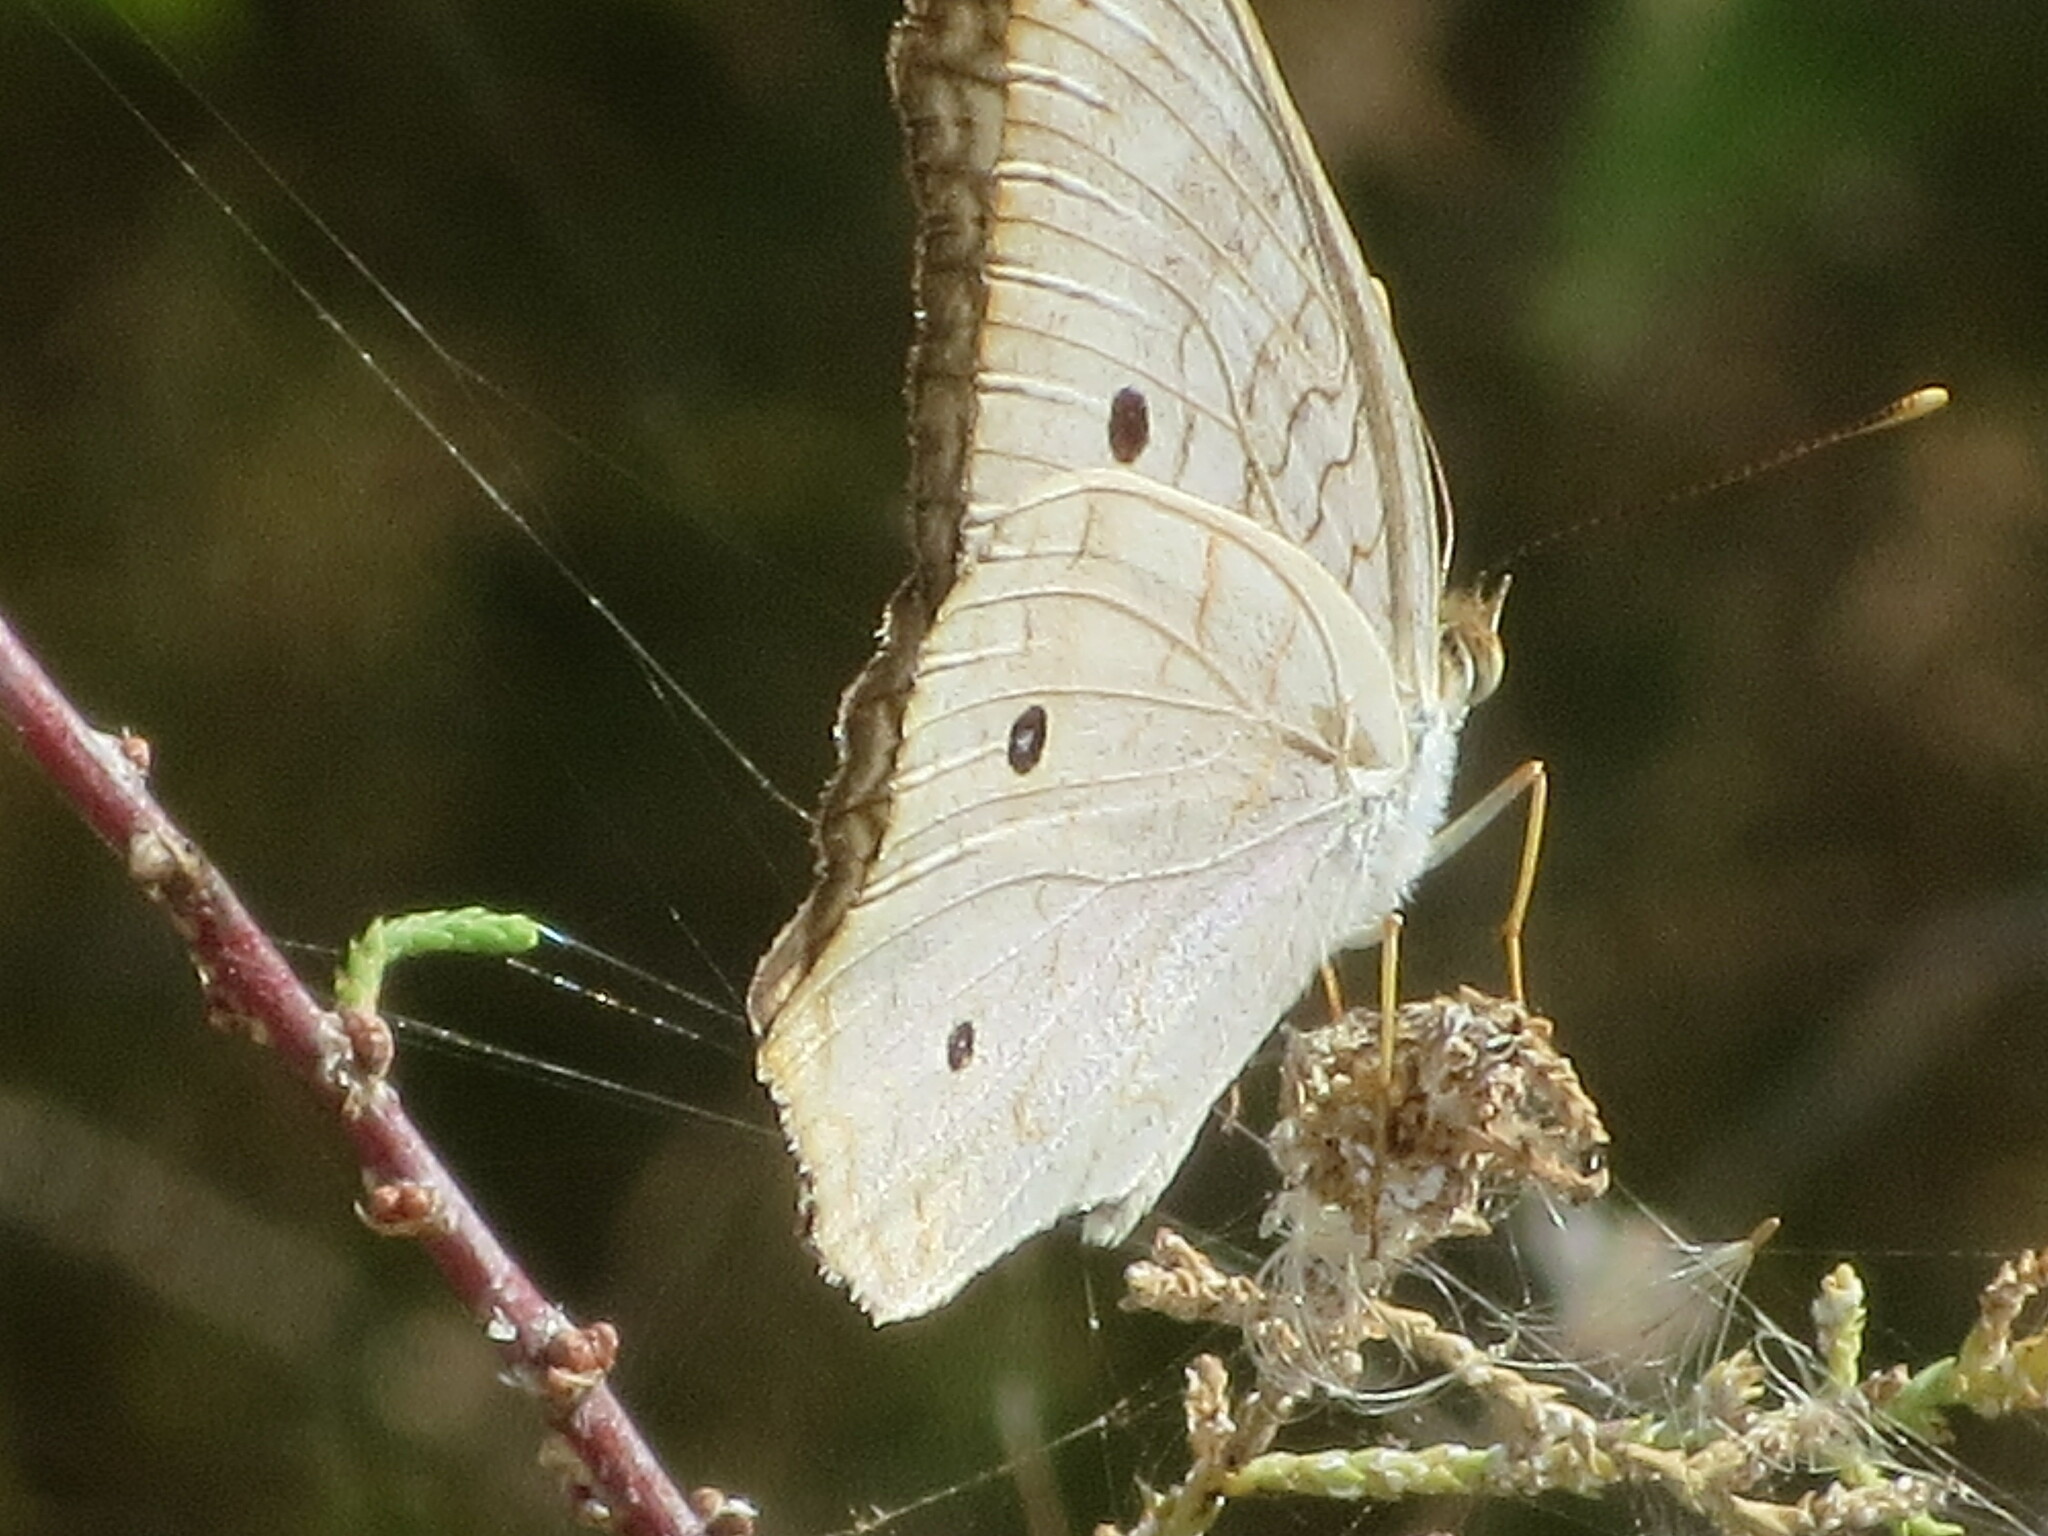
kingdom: Animalia
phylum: Arthropoda
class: Insecta
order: Lepidoptera
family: Nymphalidae
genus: Anartia
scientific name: Anartia jatrophae
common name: White peacock
